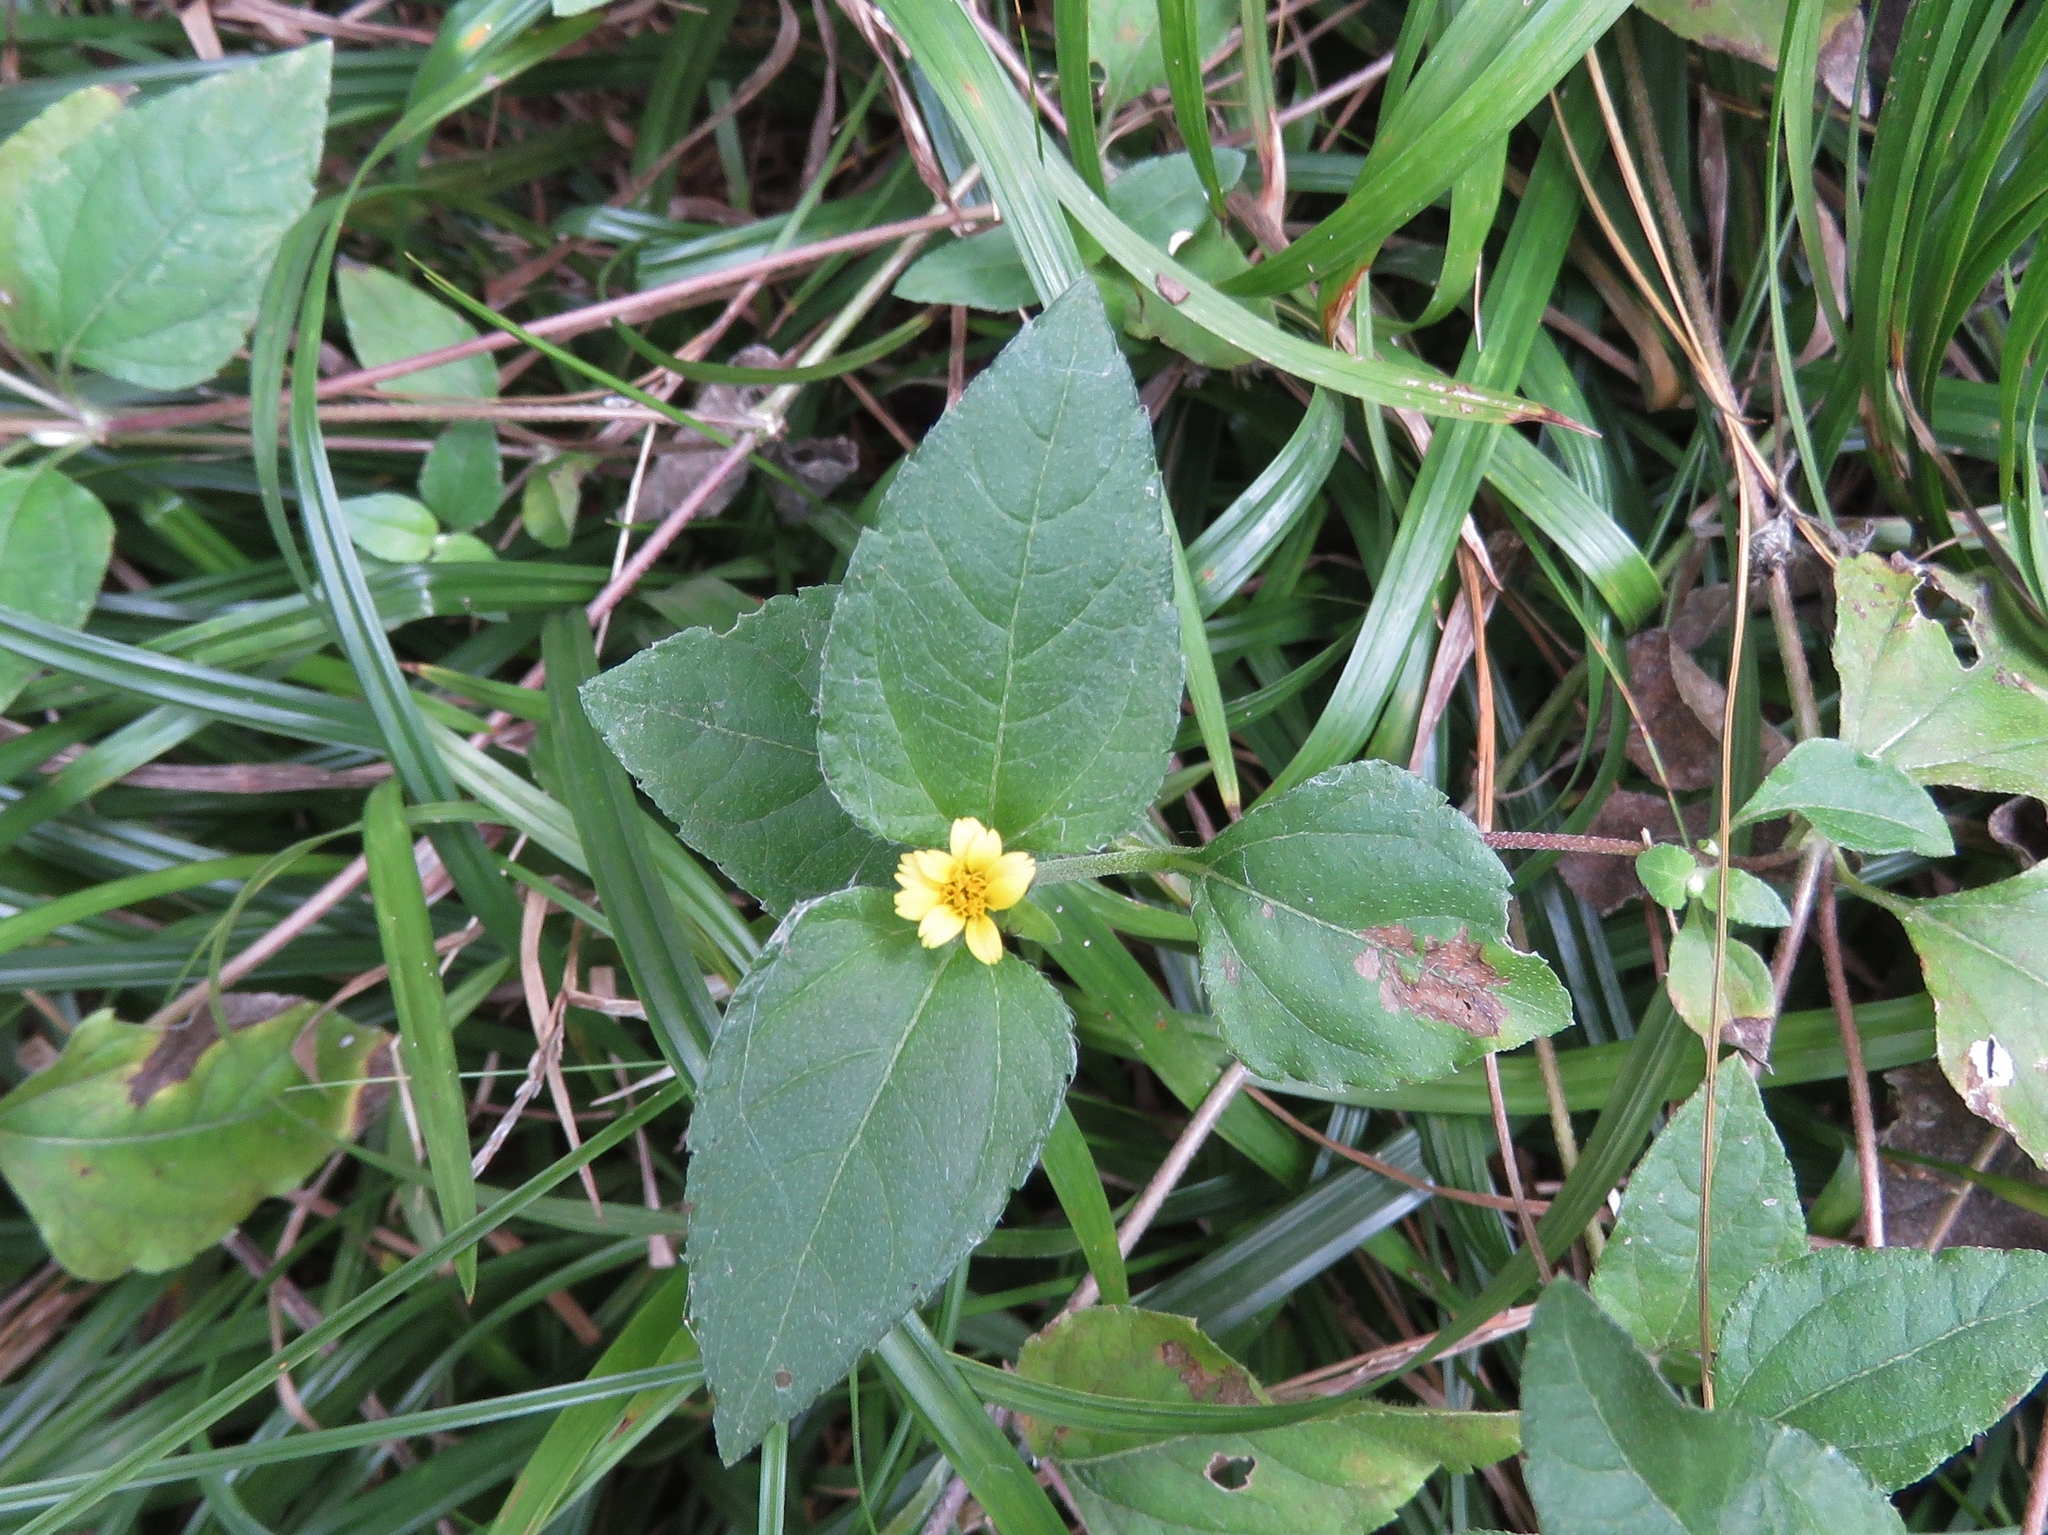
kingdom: Plantae
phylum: Tracheophyta
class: Magnoliopsida
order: Asterales
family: Asteraceae
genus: Calyptocarpus
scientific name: Calyptocarpus vialis
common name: Straggler daisy
